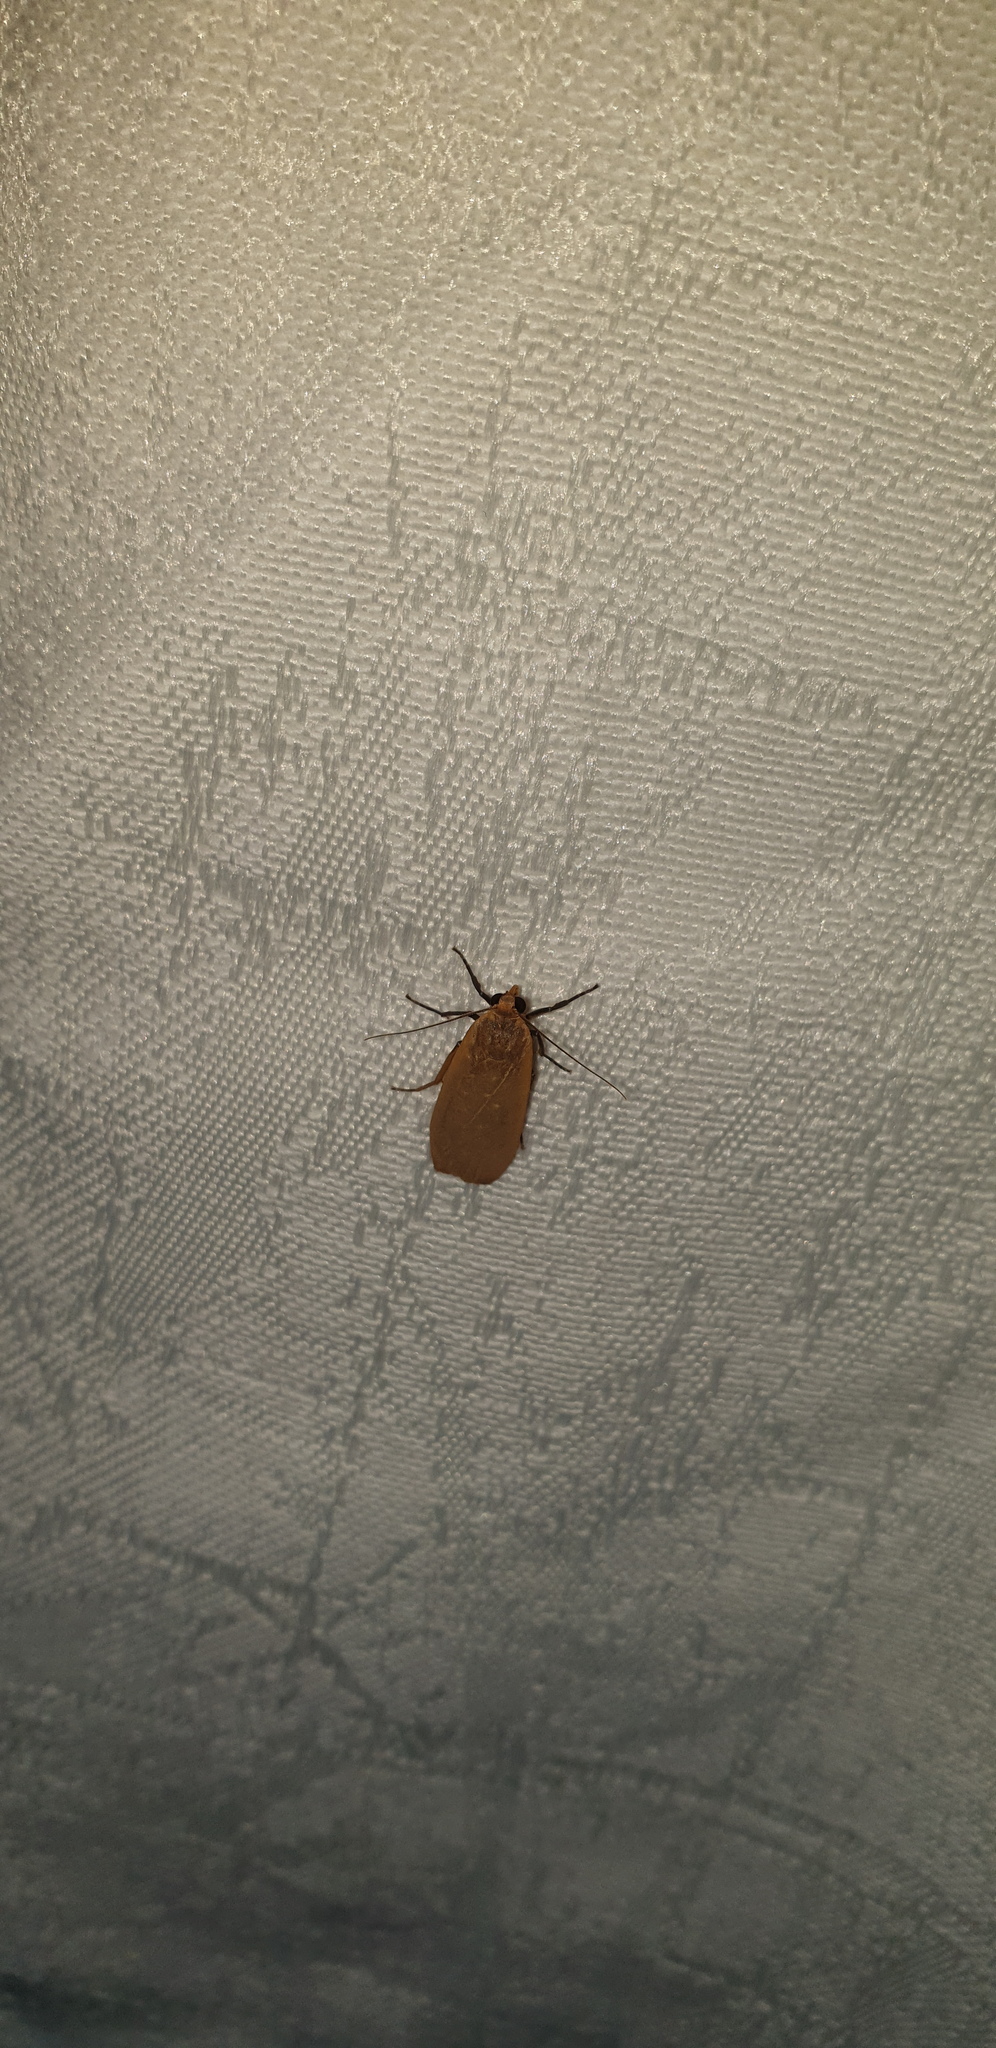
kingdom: Animalia
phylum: Arthropoda
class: Insecta
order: Lepidoptera
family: Erebidae
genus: Eilema
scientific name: Eilema plana
